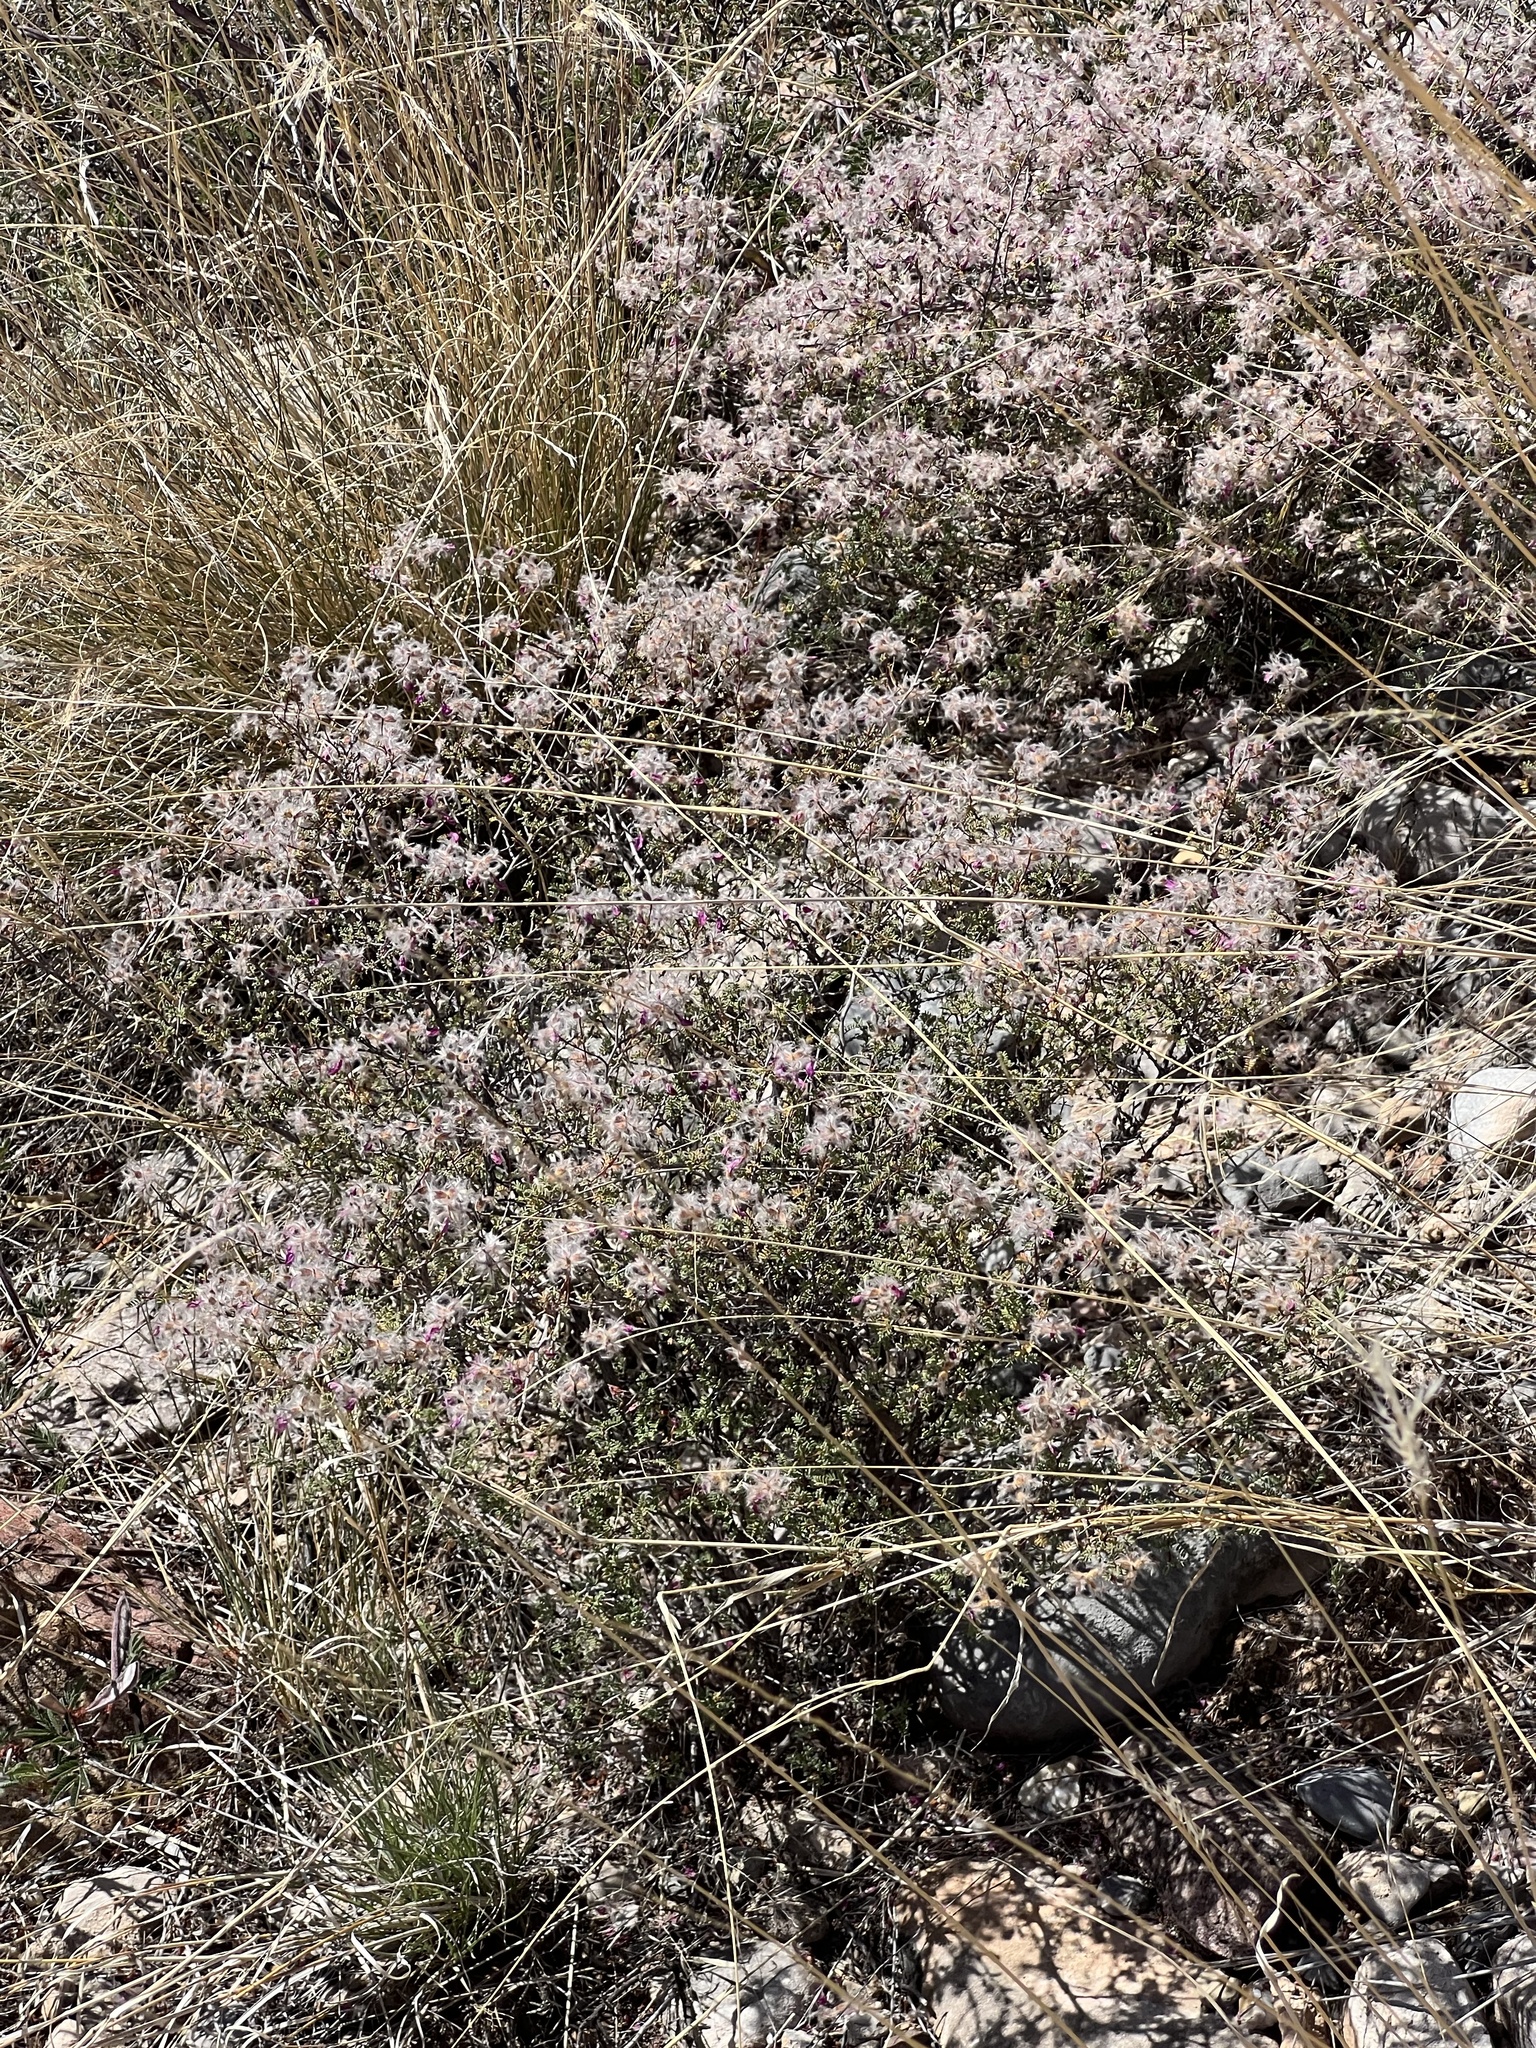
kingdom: Plantae
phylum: Tracheophyta
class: Magnoliopsida
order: Fabales
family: Fabaceae
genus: Dalea
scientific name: Dalea formosa
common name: Feather-plume dalea
